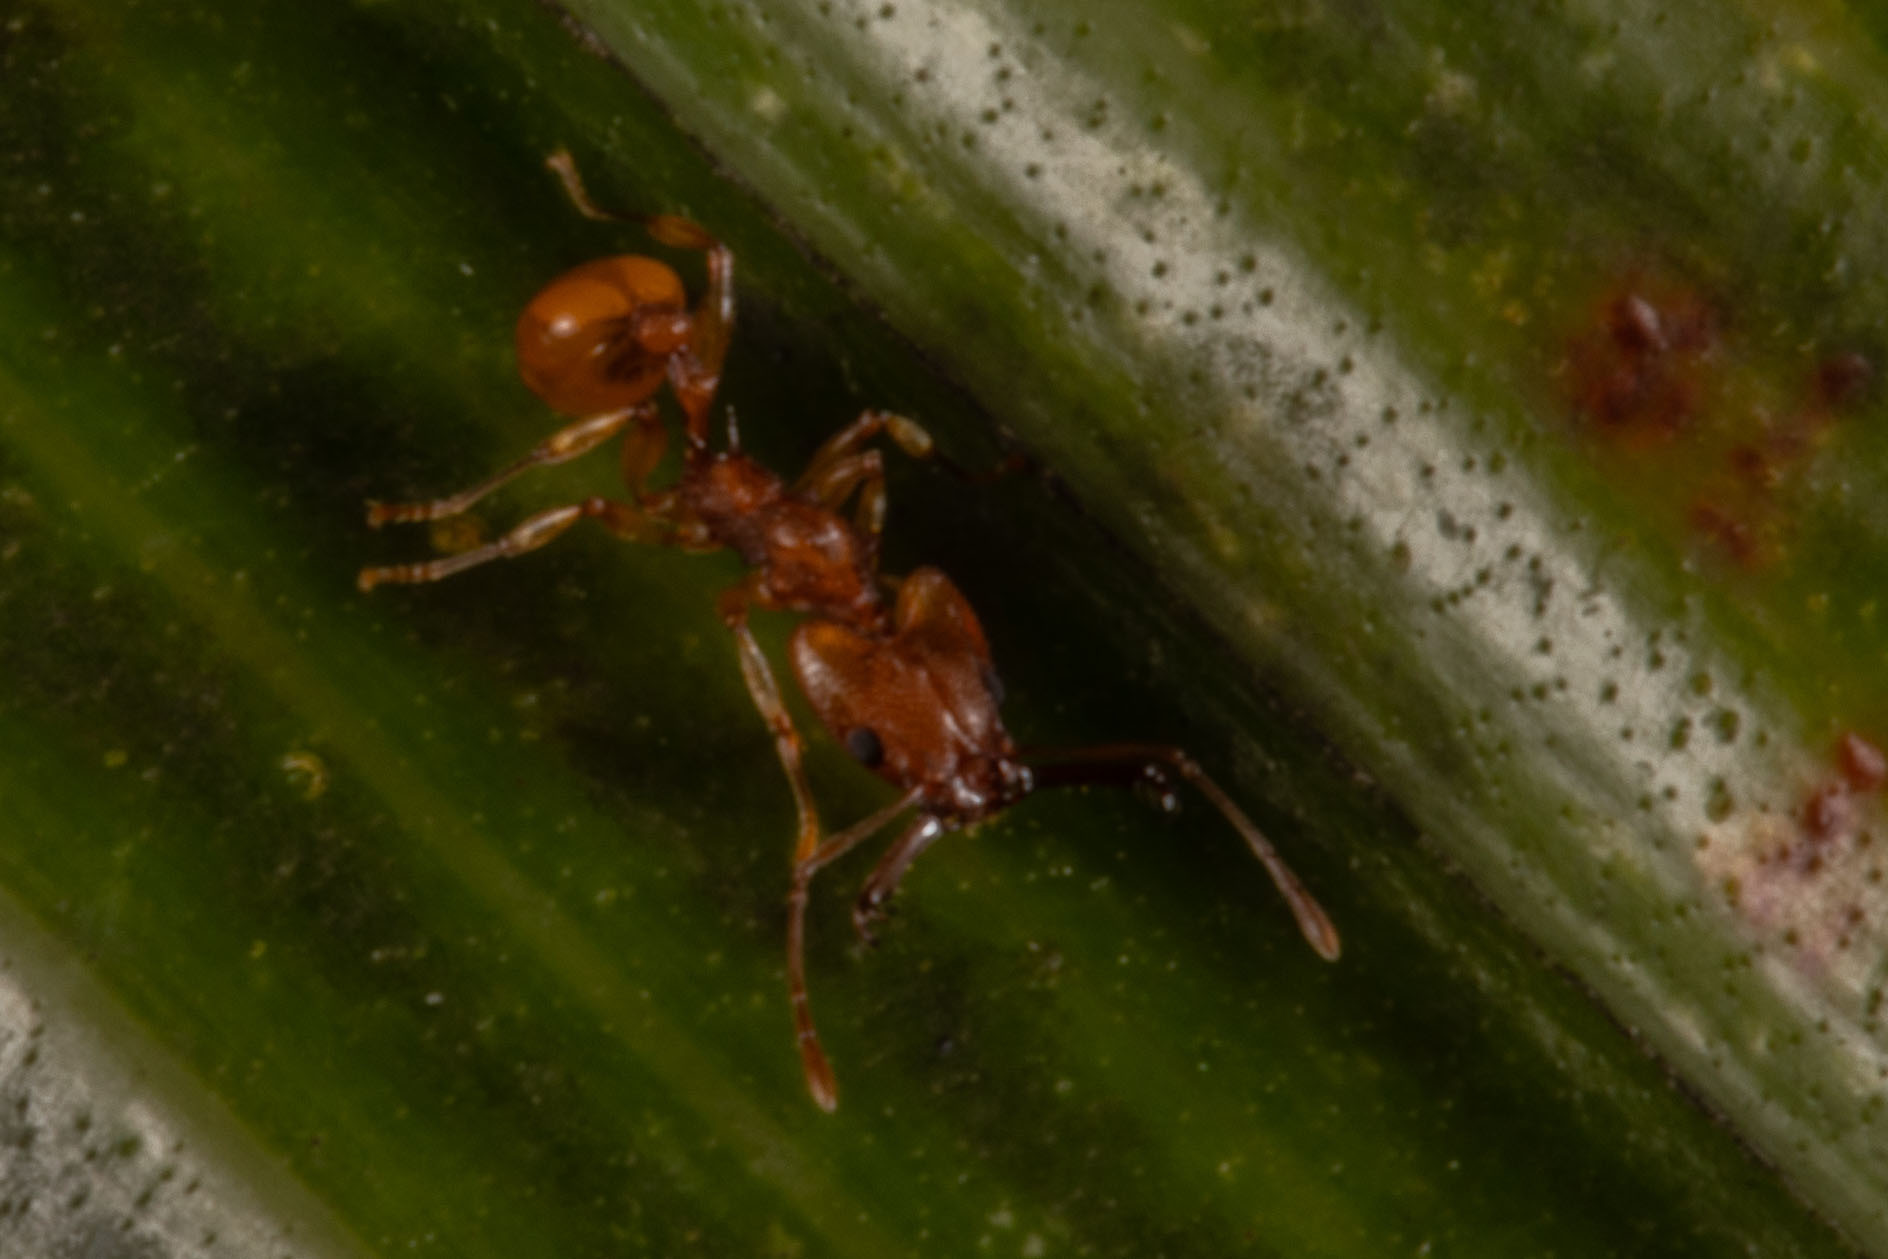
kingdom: Animalia
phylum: Arthropoda
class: Insecta
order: Hymenoptera
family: Formicidae
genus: Orectognathus
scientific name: Orectognathus antennatus
